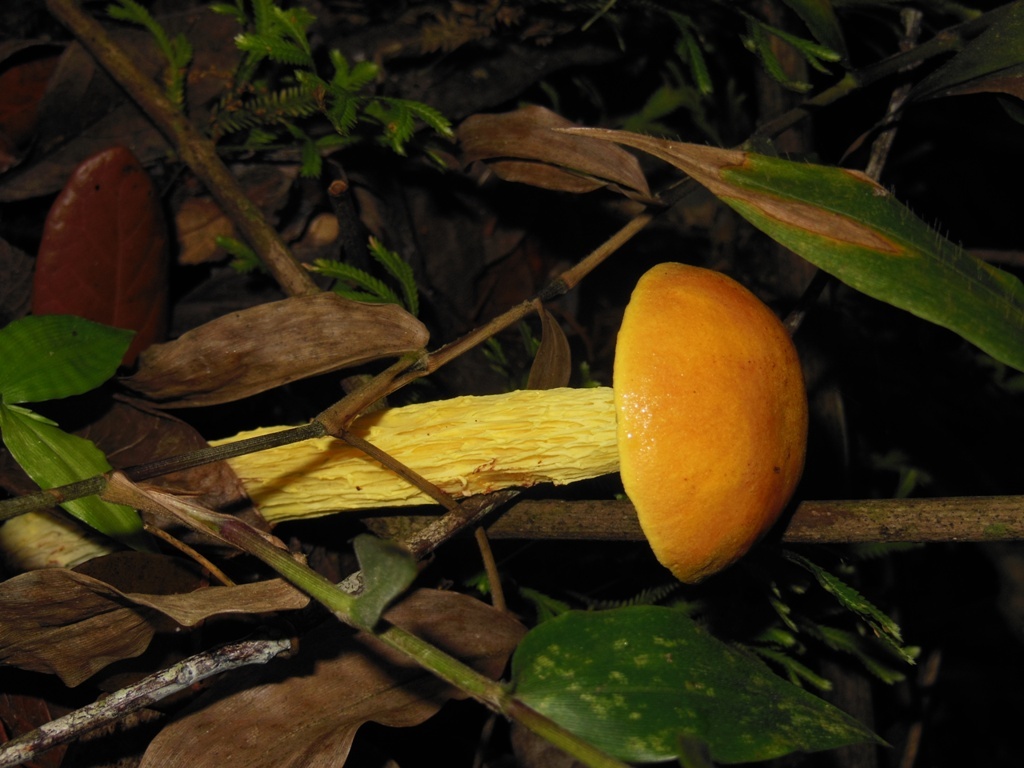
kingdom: Fungi
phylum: Basidiomycota
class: Agaricomycetes
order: Boletales
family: Boletaceae
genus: Aureoboletus
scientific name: Aureoboletus betula
